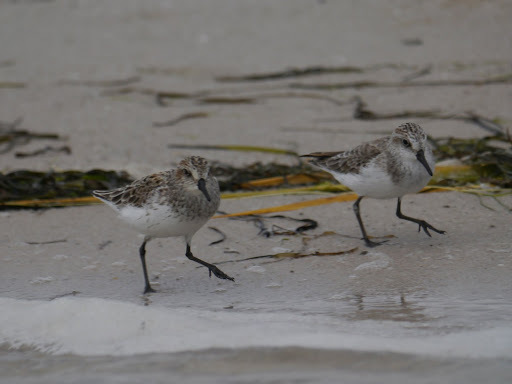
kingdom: Animalia
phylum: Chordata
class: Aves
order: Charadriiformes
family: Scolopacidae
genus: Calidris
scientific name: Calidris pusilla
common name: Semipalmated sandpiper
